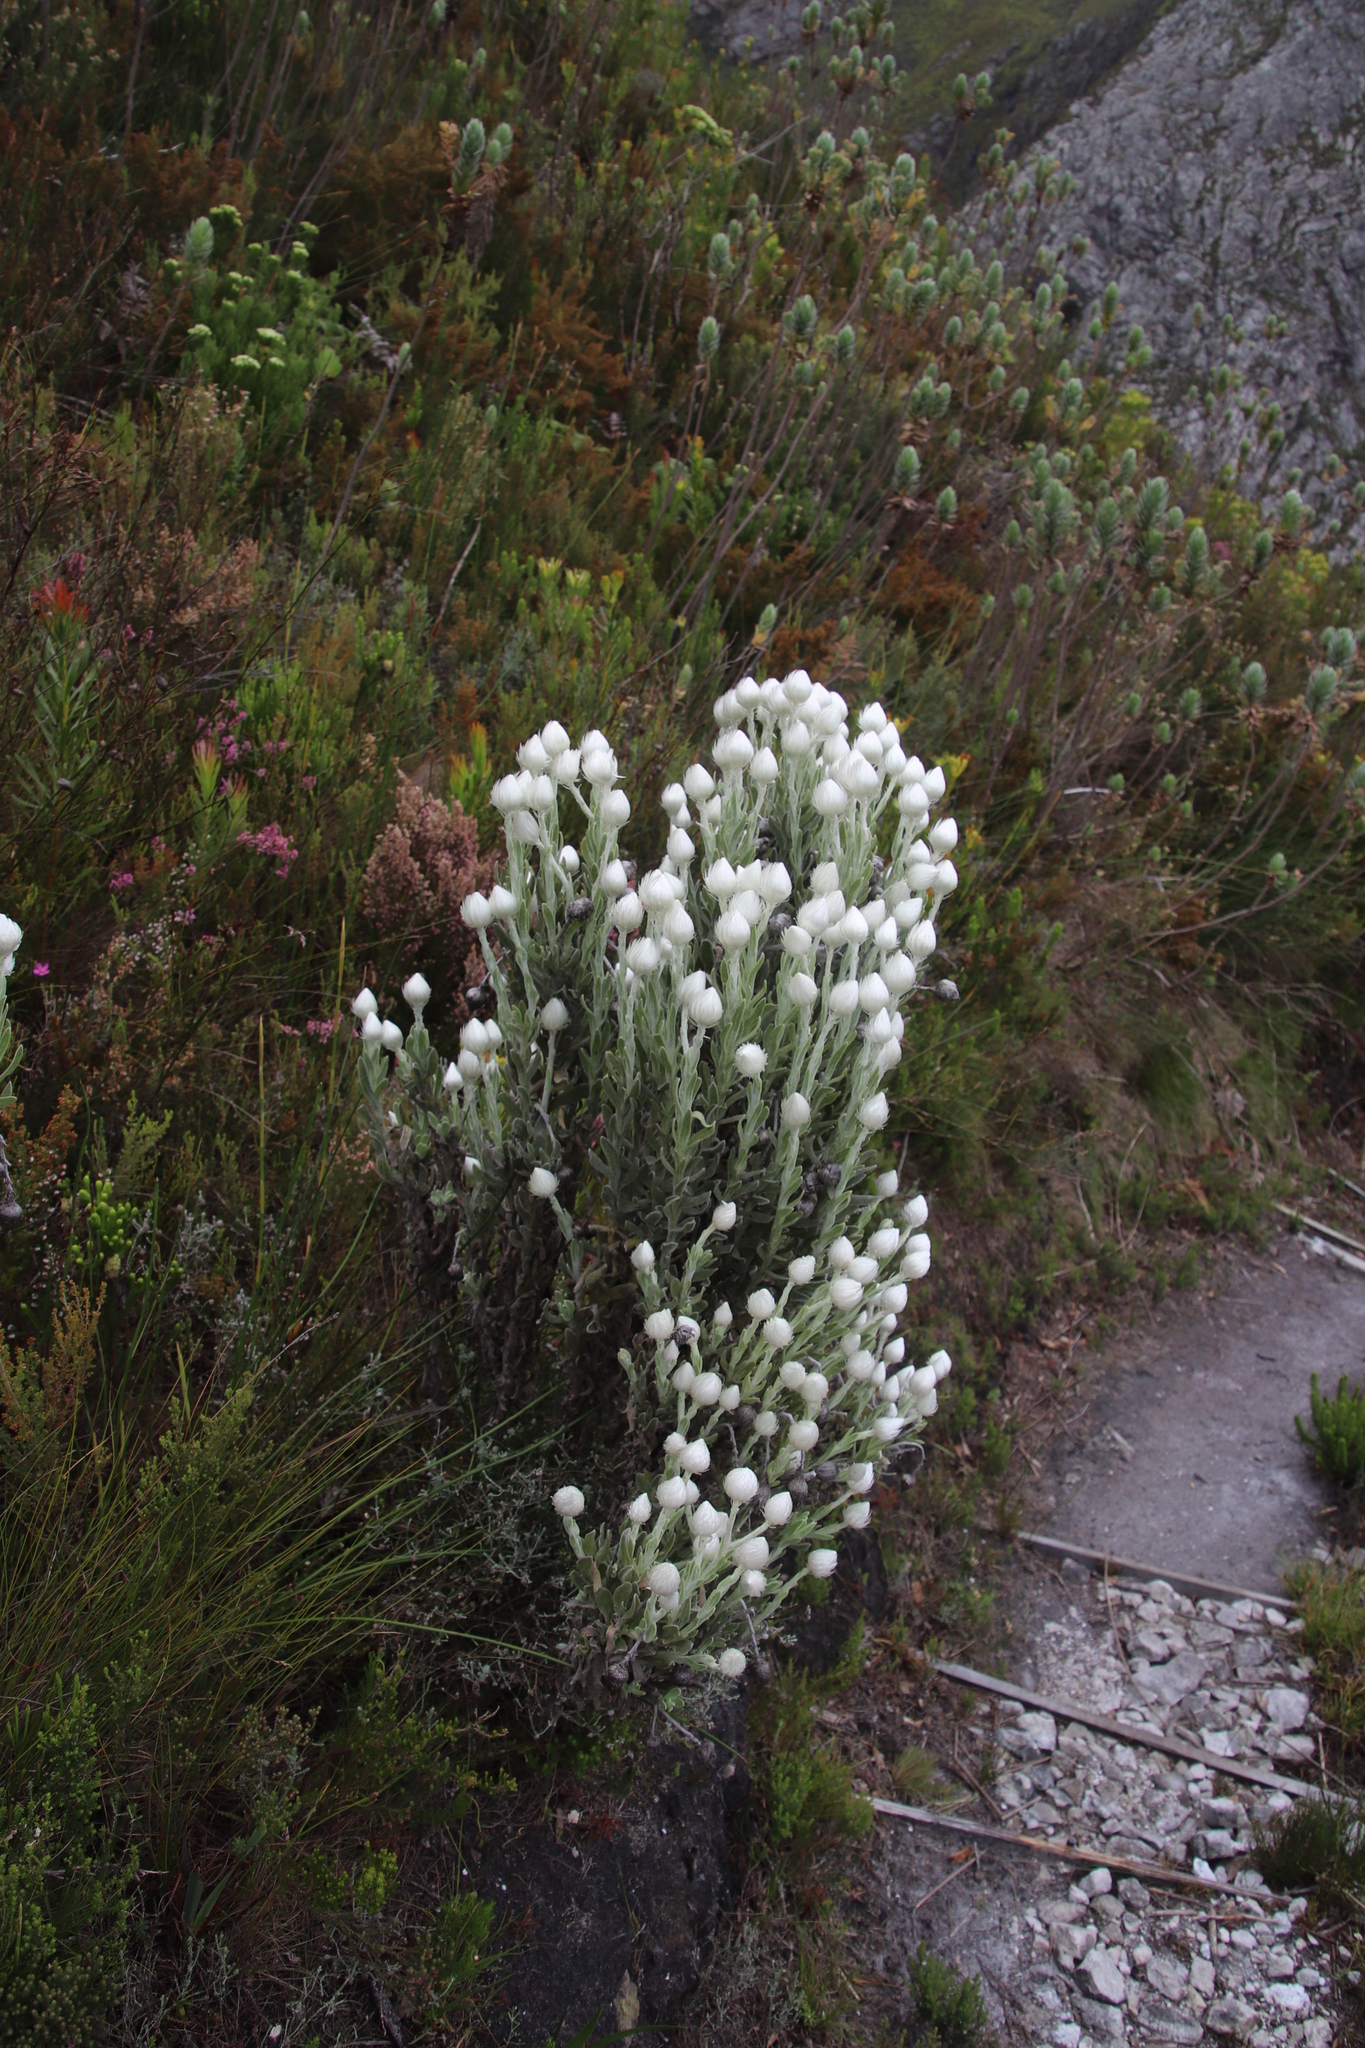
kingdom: Plantae
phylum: Tracheophyta
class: Magnoliopsida
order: Asterales
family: Asteraceae
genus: Syncarpha
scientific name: Syncarpha vestita
